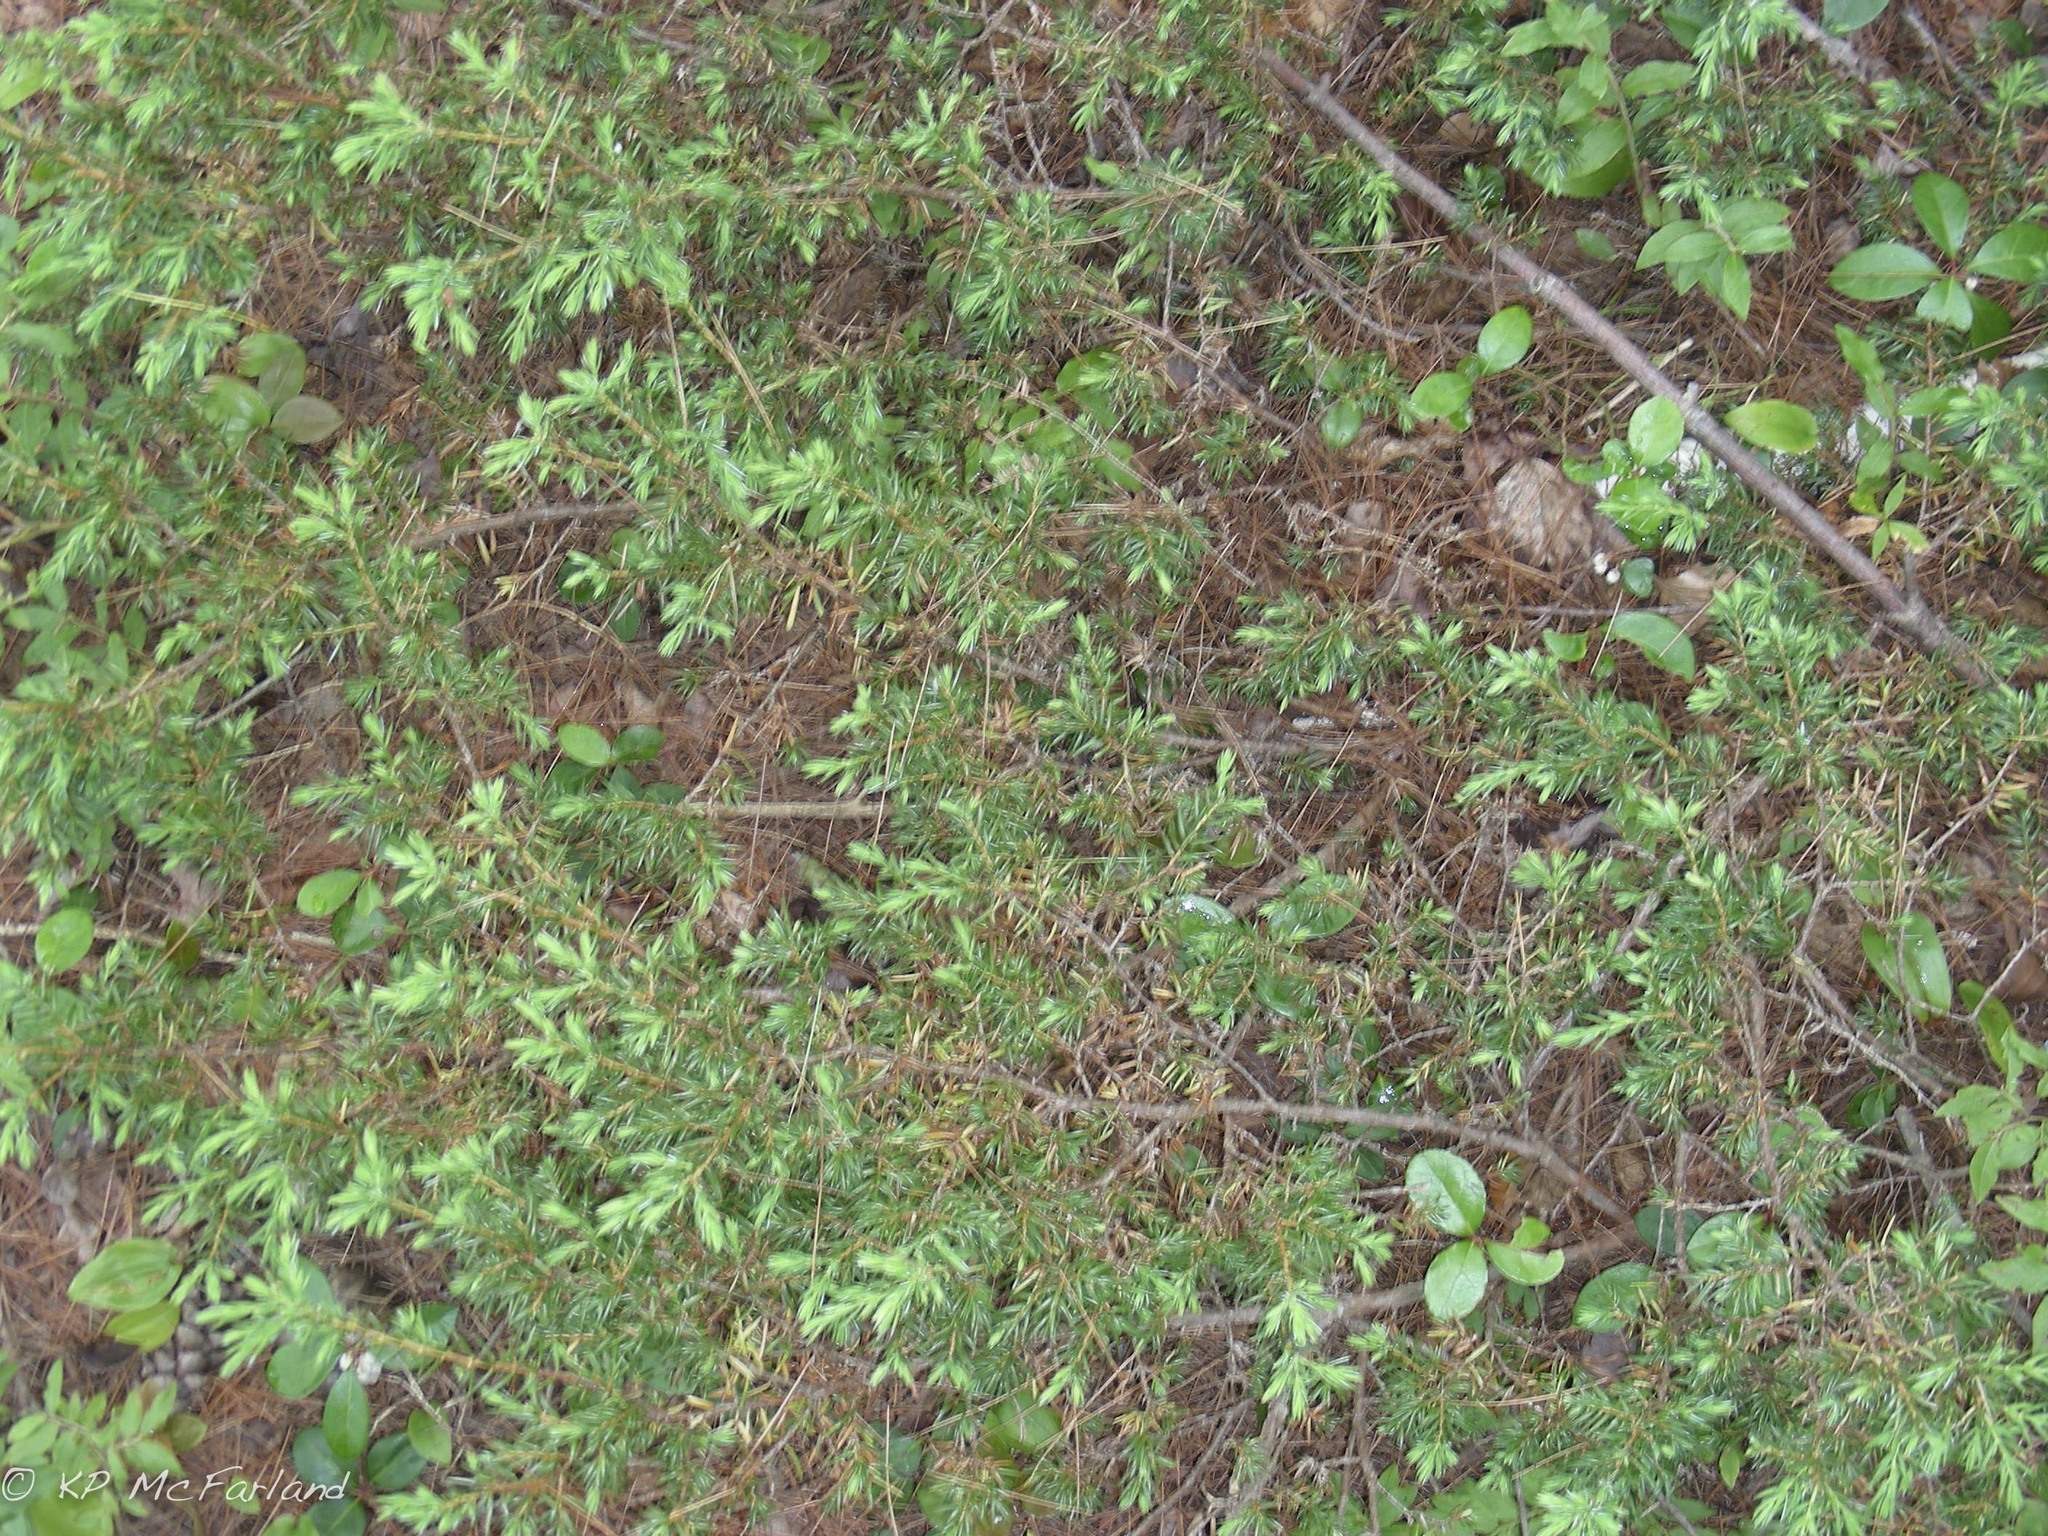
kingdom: Plantae
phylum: Tracheophyta
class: Pinopsida
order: Pinales
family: Cupressaceae
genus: Juniperus
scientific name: Juniperus communis
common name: Common juniper
